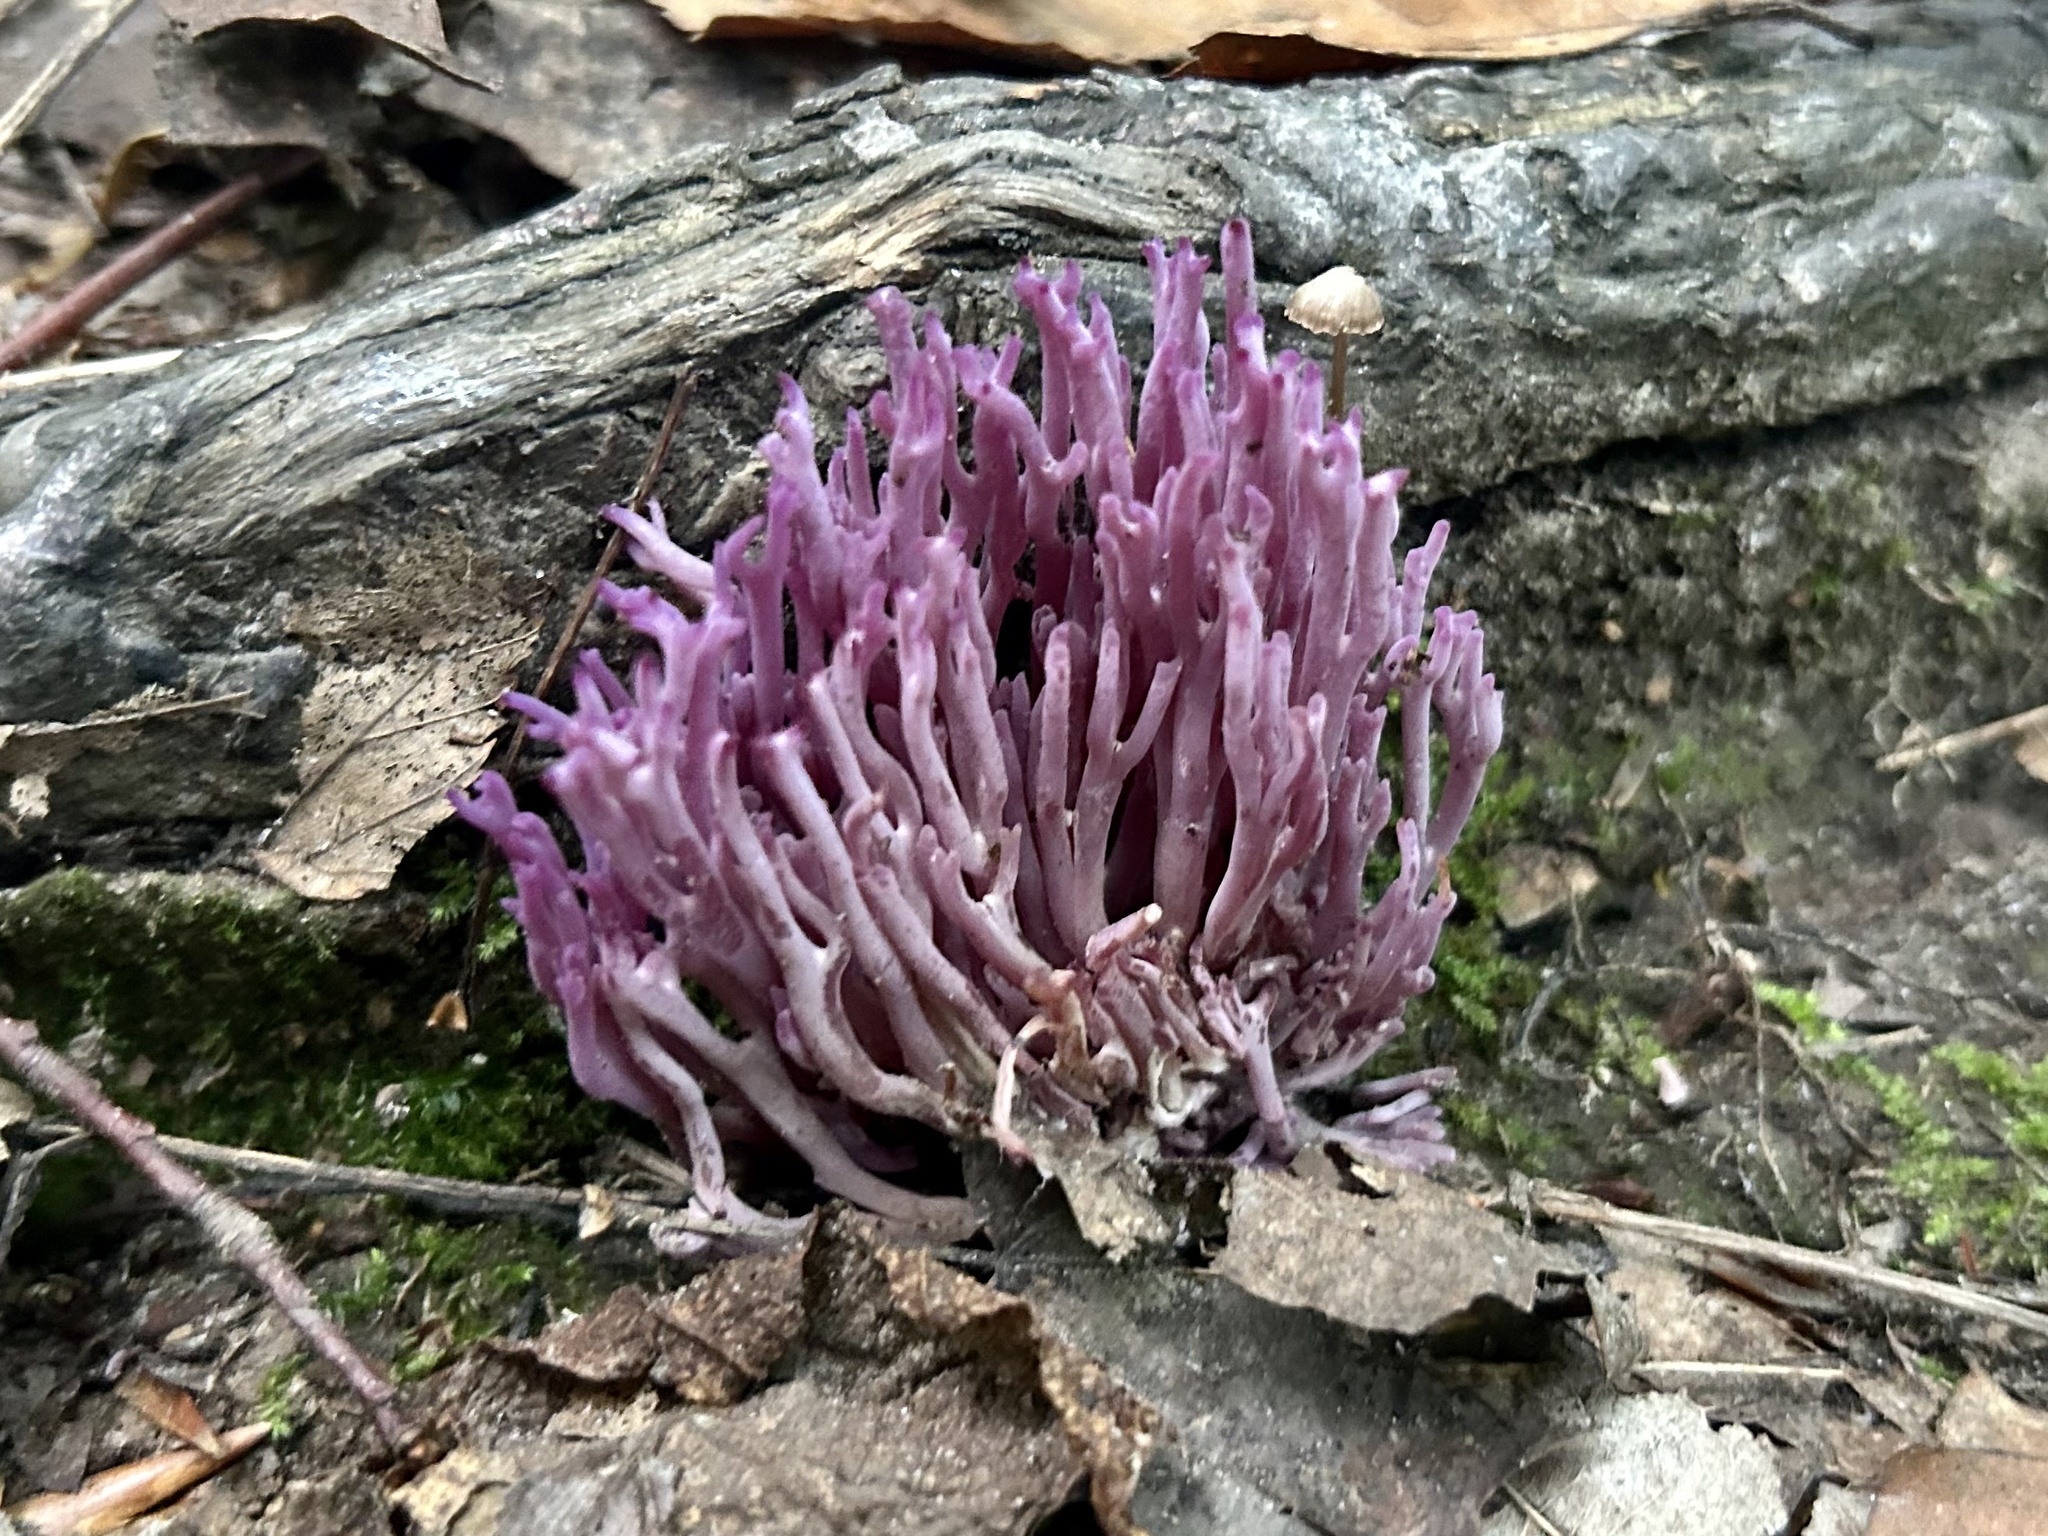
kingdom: Fungi
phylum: Basidiomycota
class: Agaricomycetes
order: Agaricales
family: Clavariaceae
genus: Clavaria
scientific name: Clavaria zollingeri
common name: Violet coral
